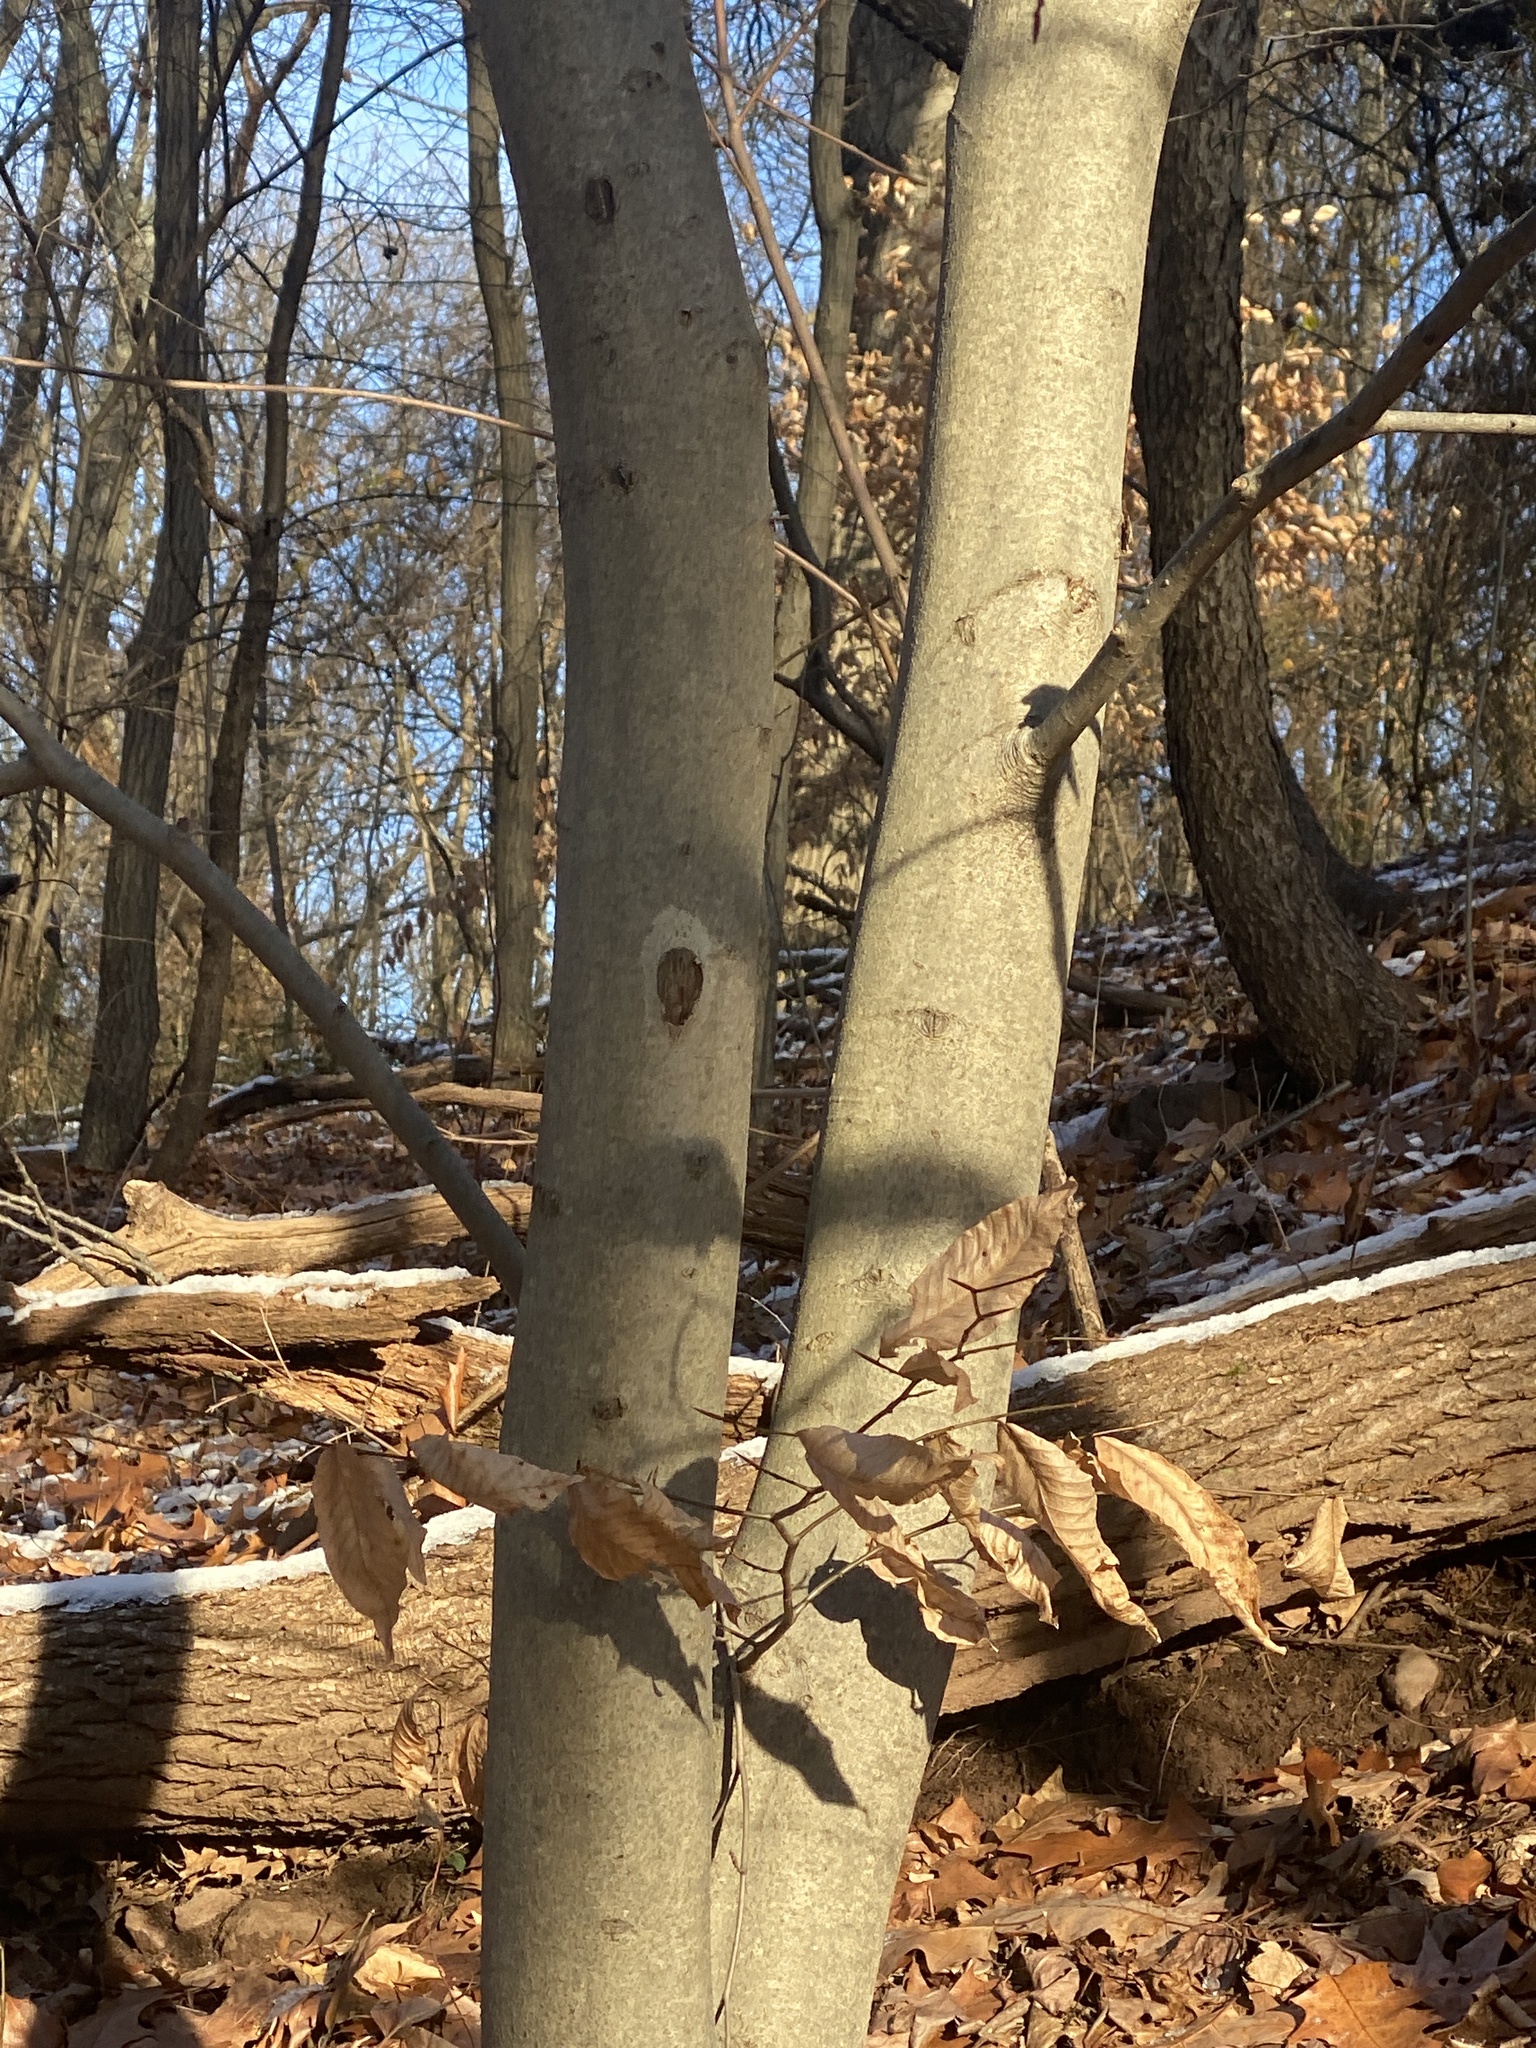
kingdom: Plantae
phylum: Tracheophyta
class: Magnoliopsida
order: Fagales
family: Fagaceae
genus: Fagus
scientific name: Fagus grandifolia
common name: American beech
